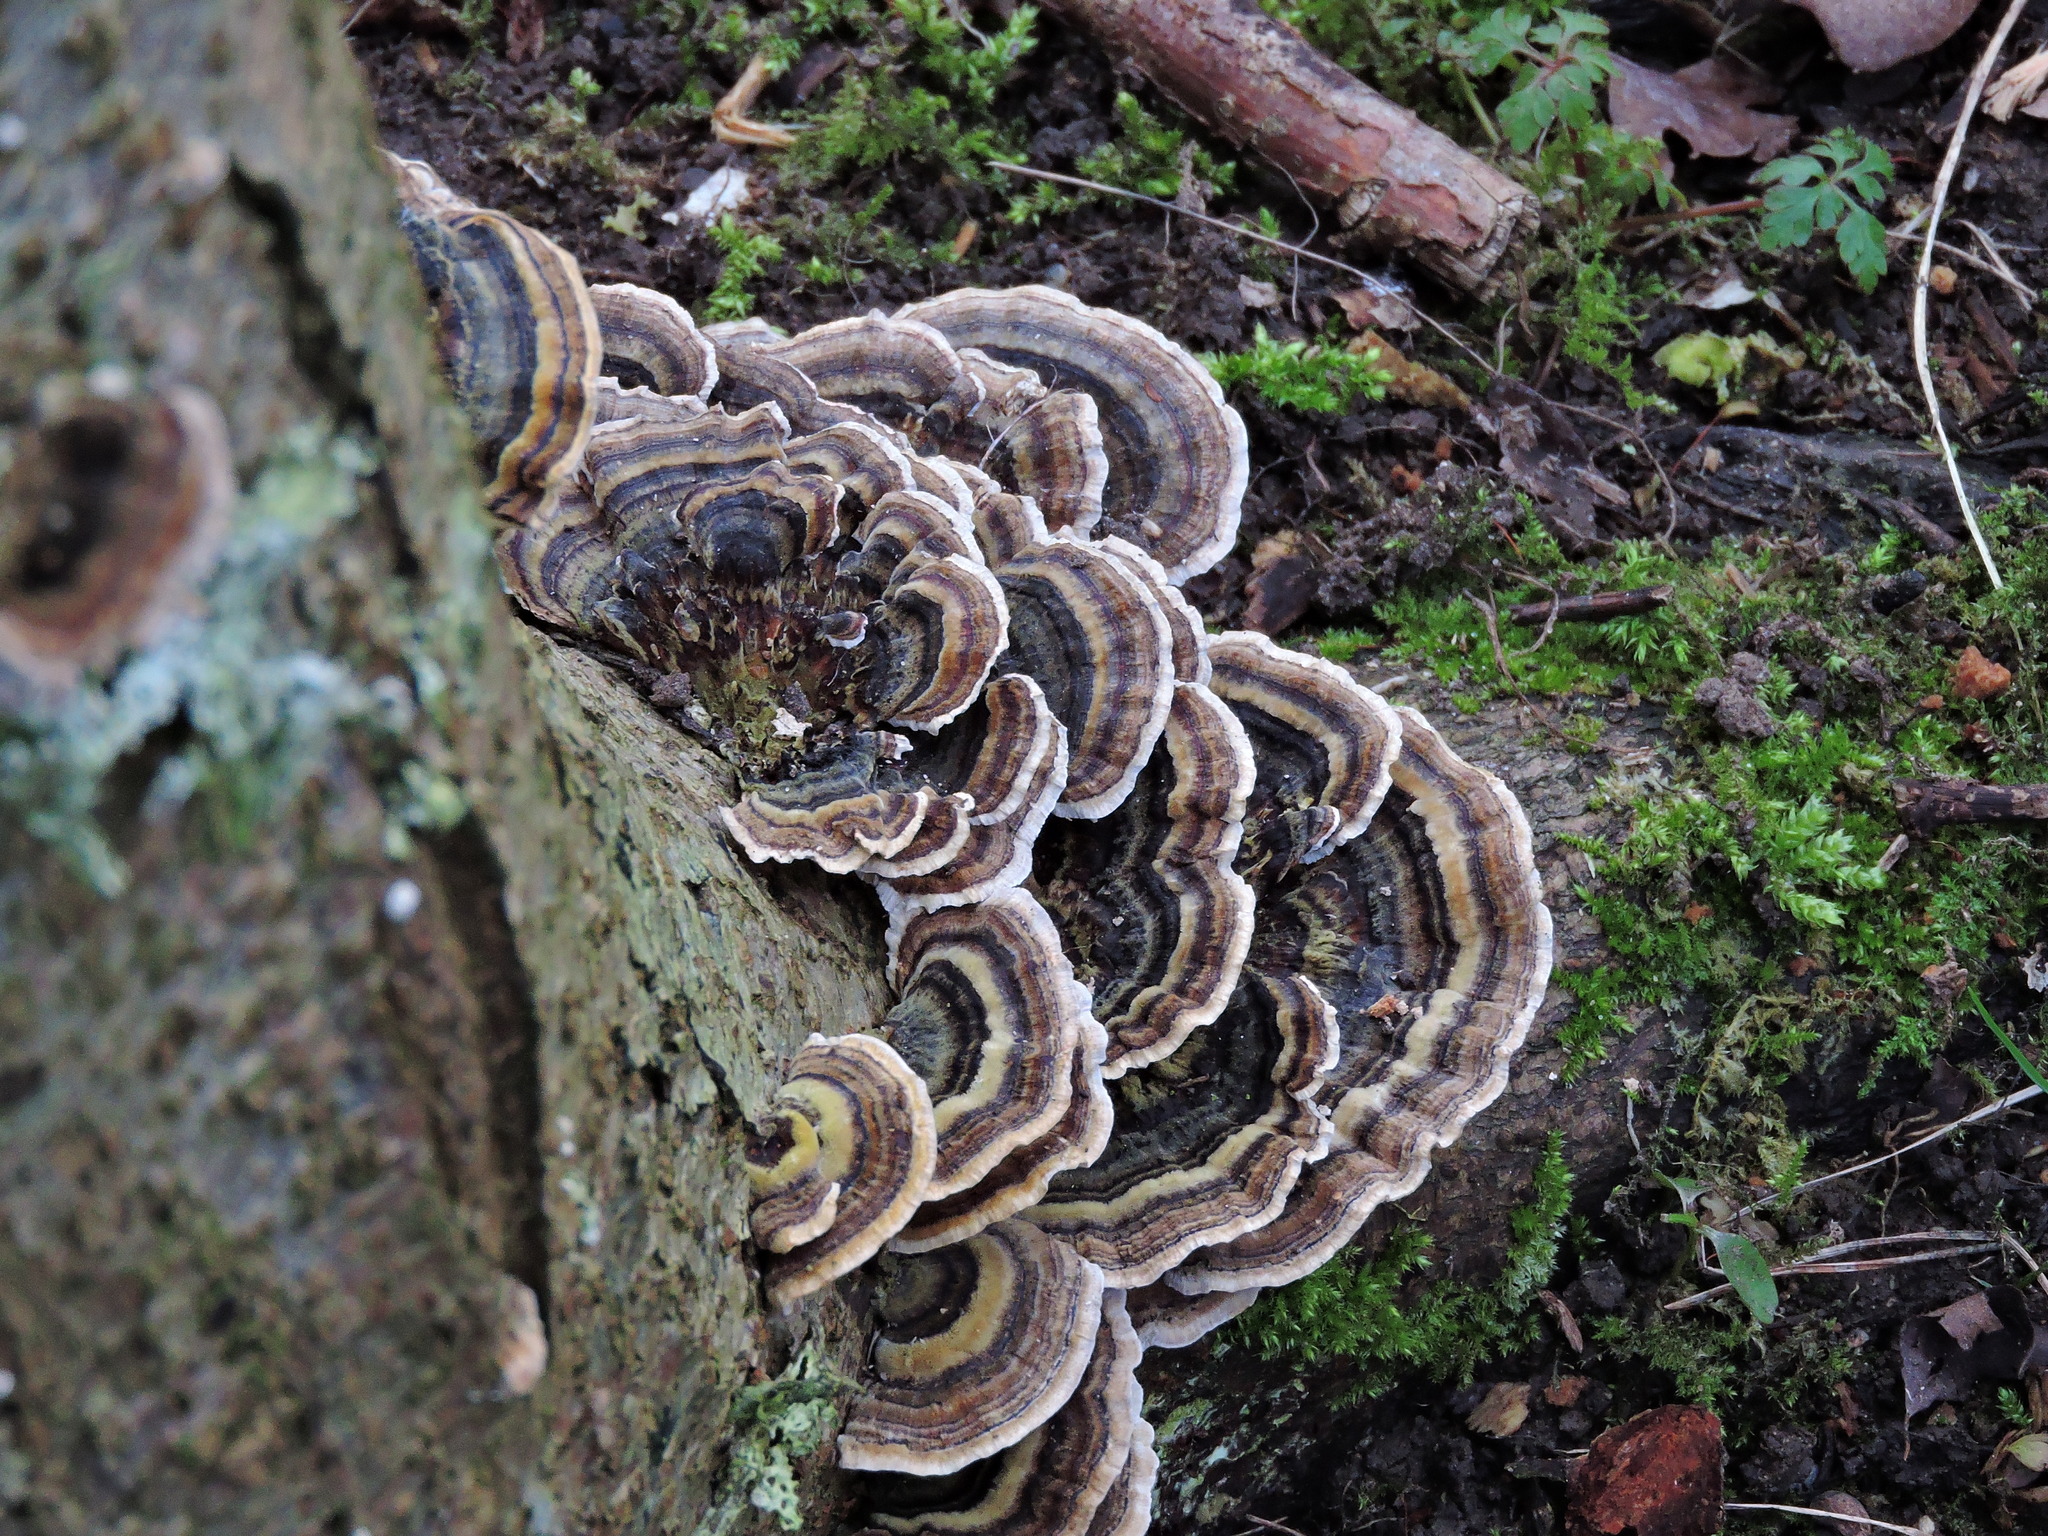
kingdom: Fungi
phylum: Basidiomycota
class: Agaricomycetes
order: Polyporales
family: Polyporaceae
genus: Trametes
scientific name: Trametes versicolor
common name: Turkeytail
